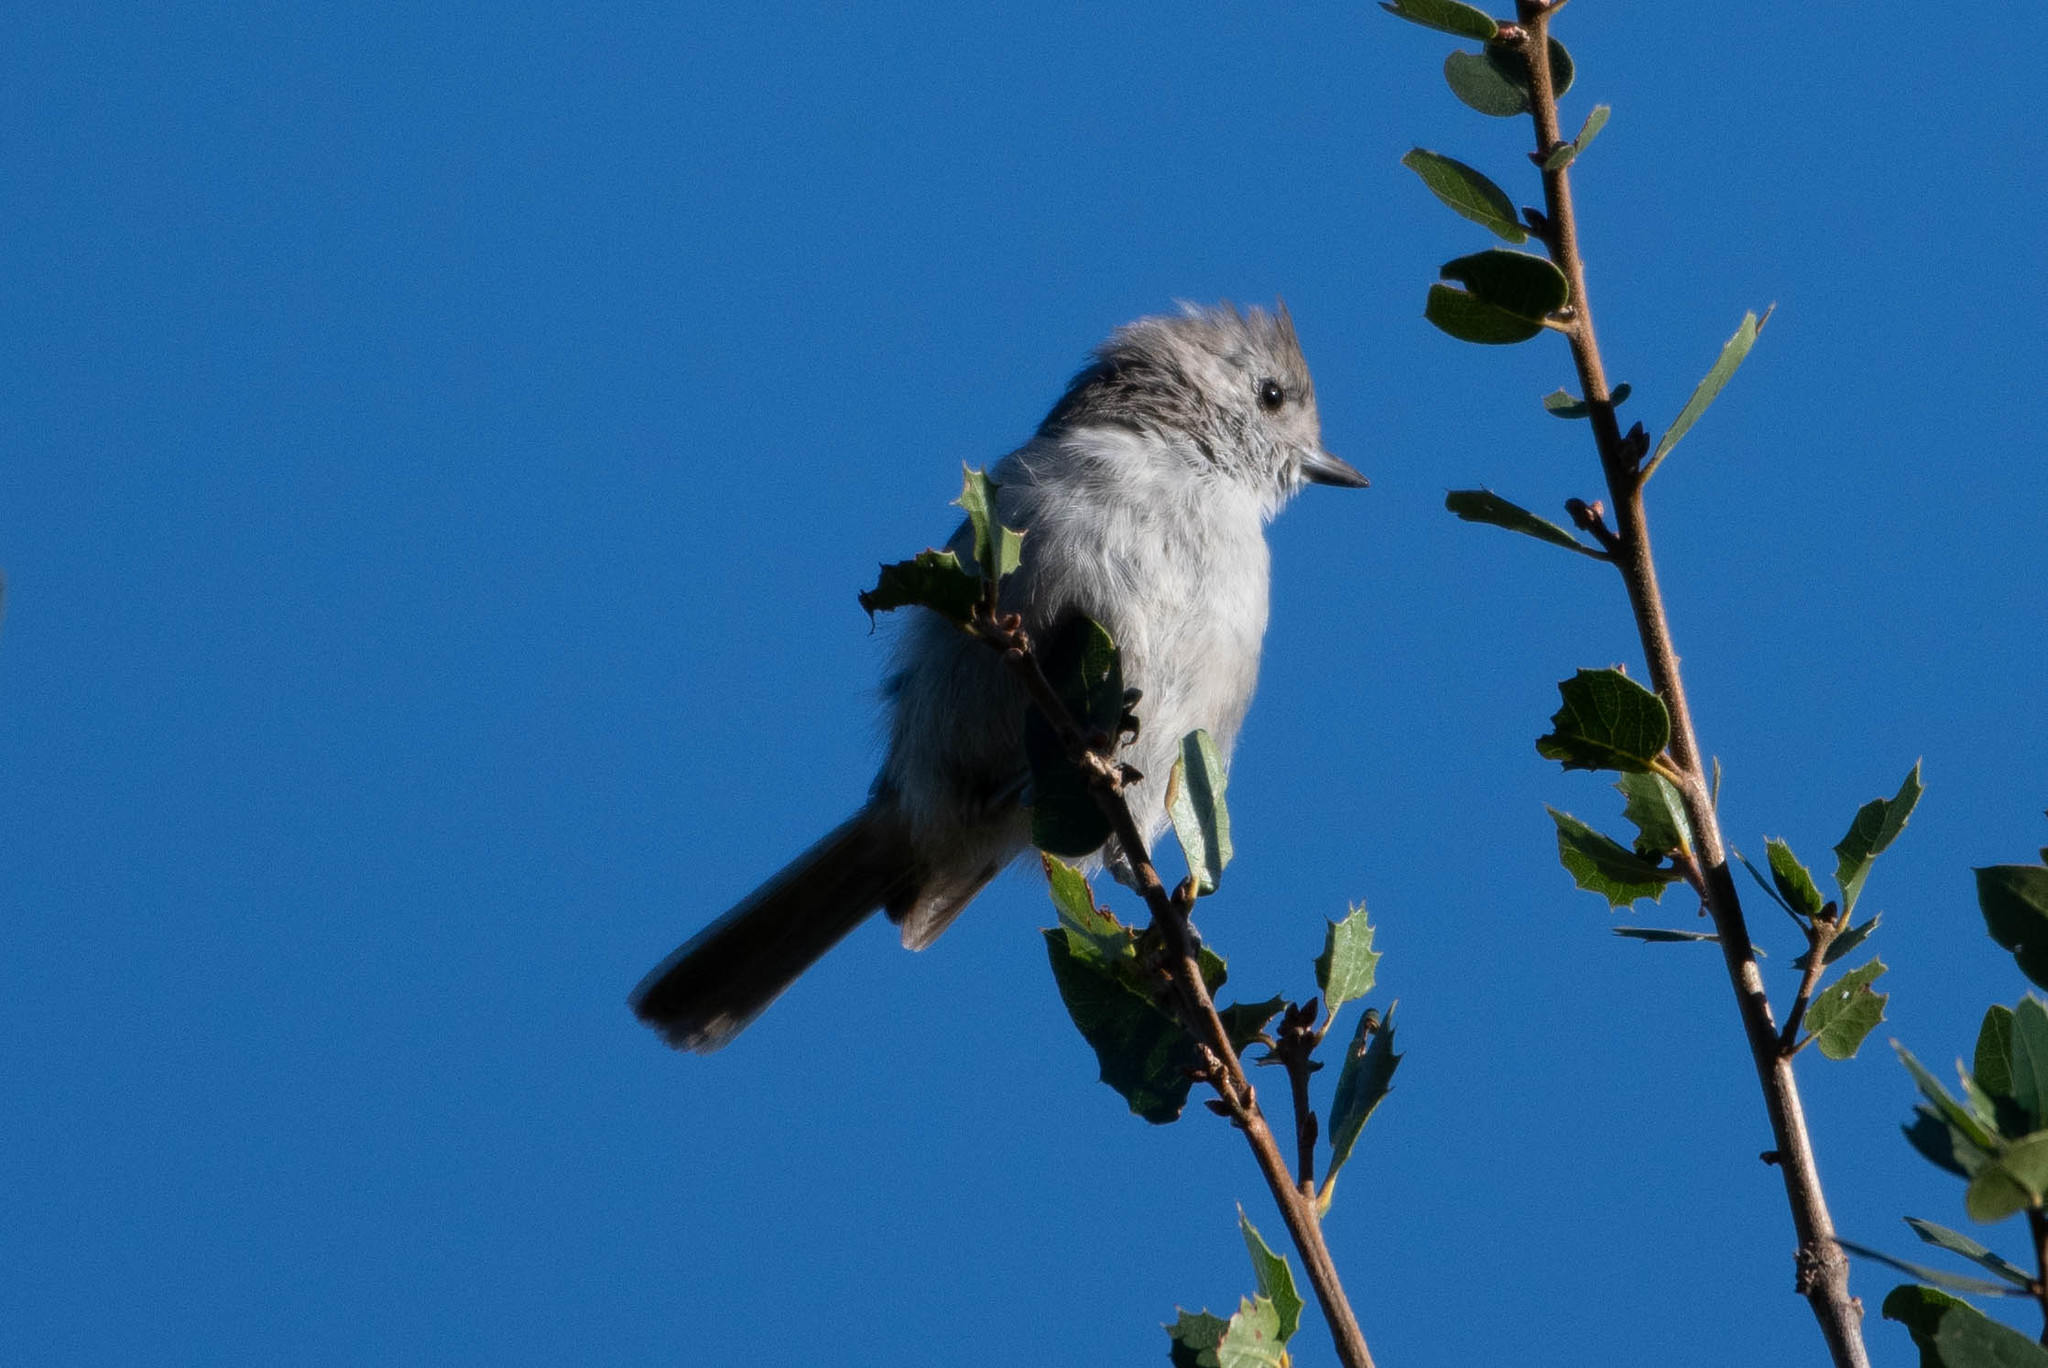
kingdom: Animalia
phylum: Chordata
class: Aves
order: Passeriformes
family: Paridae
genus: Baeolophus
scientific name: Baeolophus inornatus
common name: Oak titmouse
